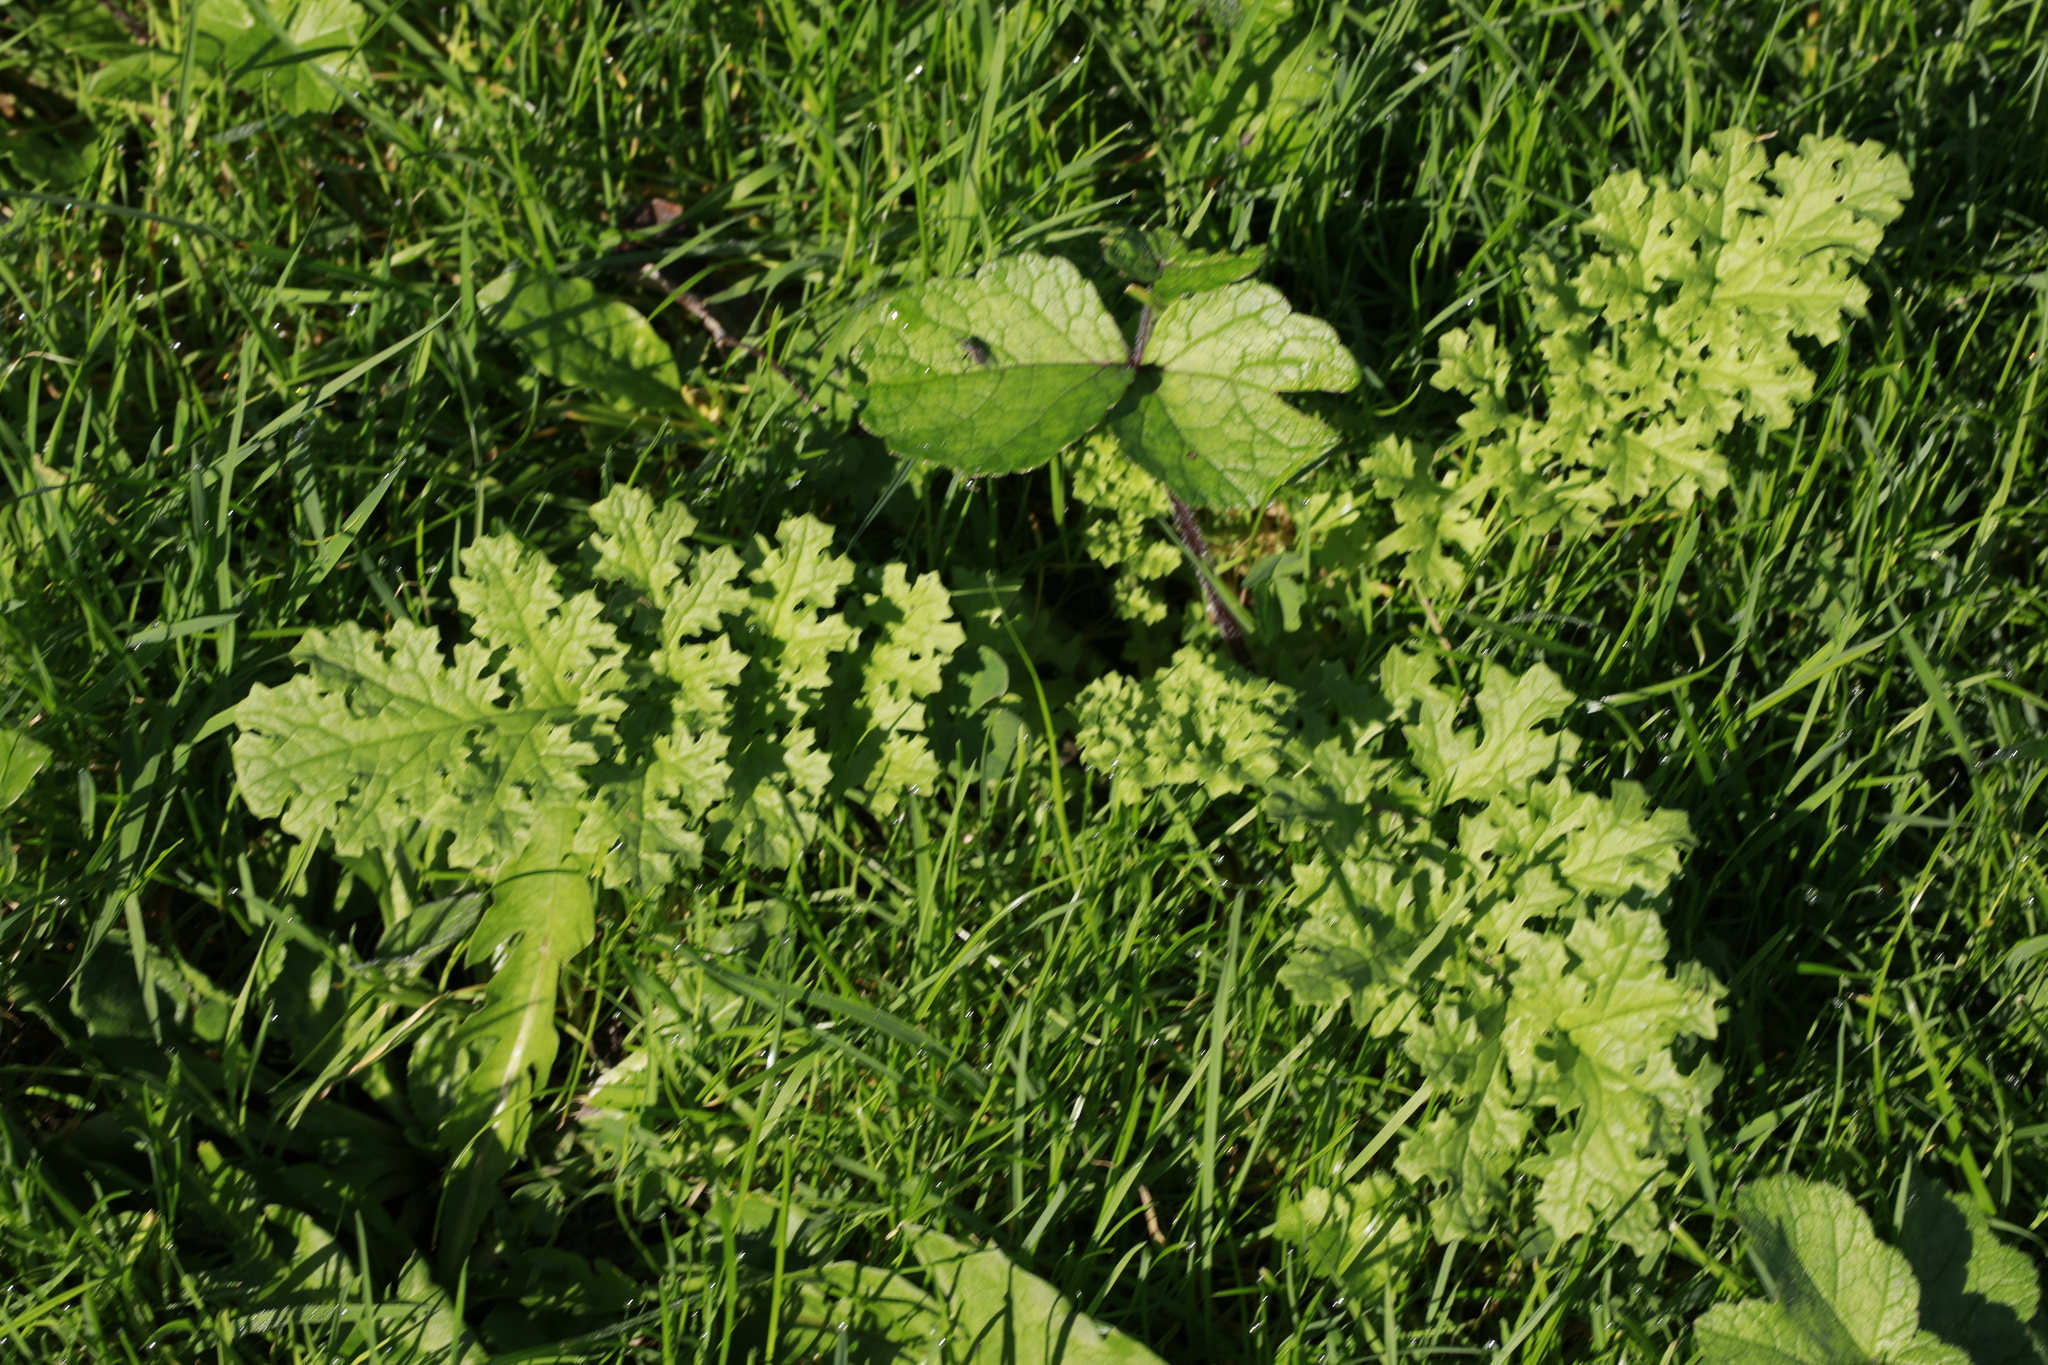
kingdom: Plantae
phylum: Tracheophyta
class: Magnoliopsida
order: Asterales
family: Asteraceae
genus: Jacobaea
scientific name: Jacobaea vulgaris
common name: Stinking willie
